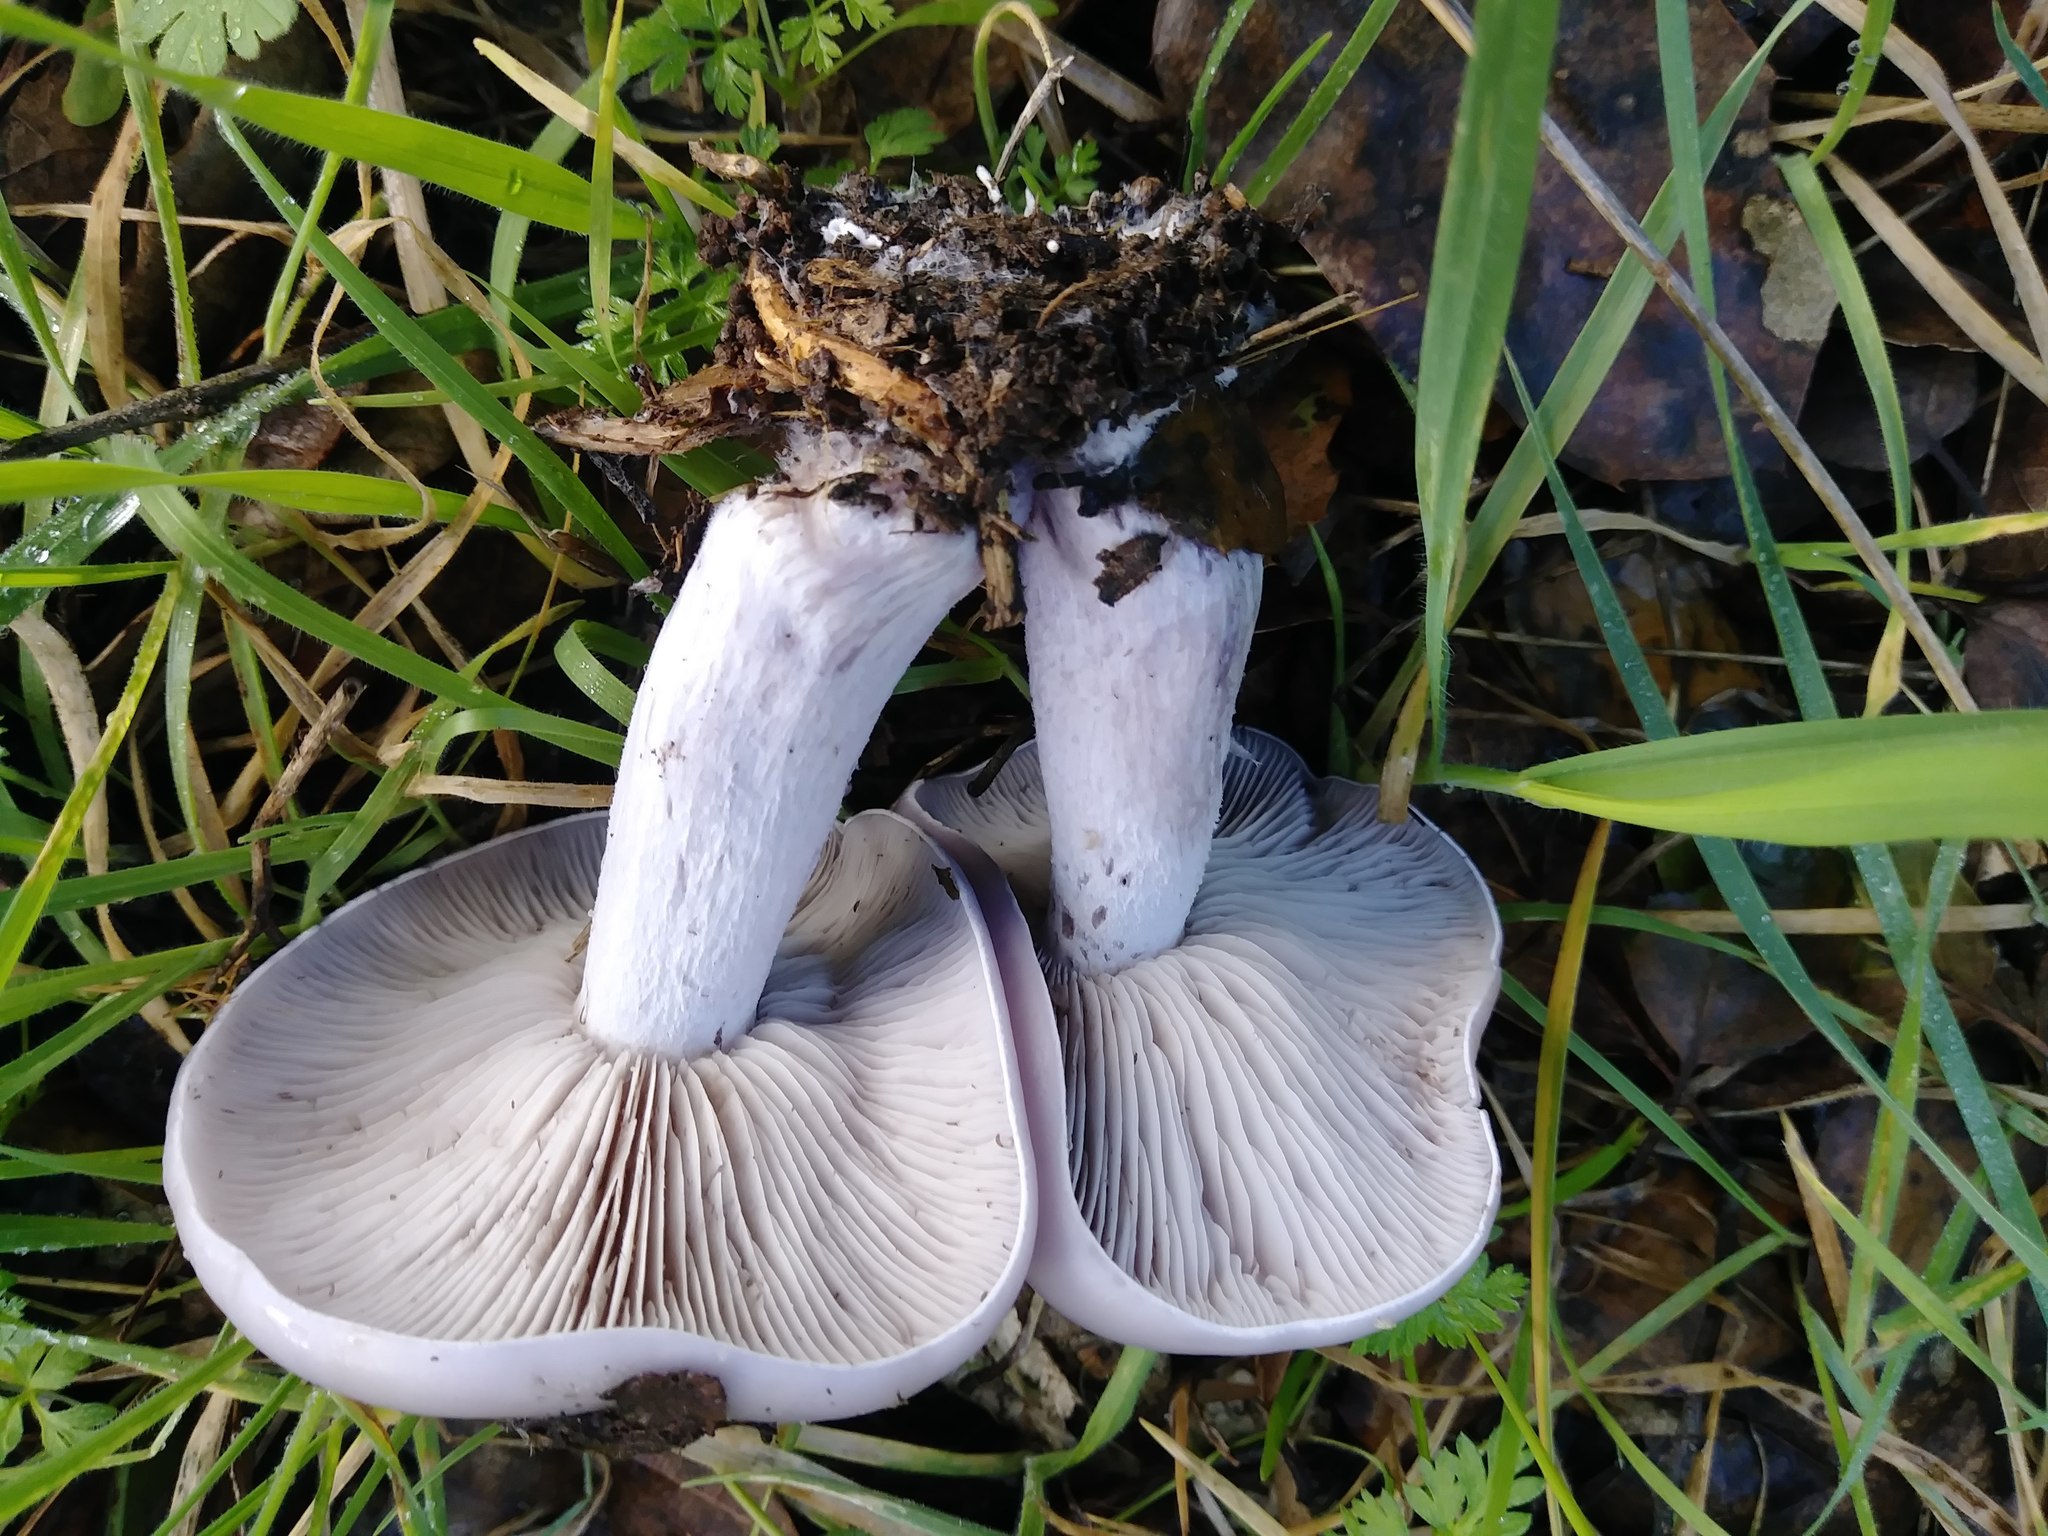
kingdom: Fungi
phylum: Basidiomycota
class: Agaricomycetes
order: Agaricales
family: Tricholomataceae
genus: Collybia
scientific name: Collybia
